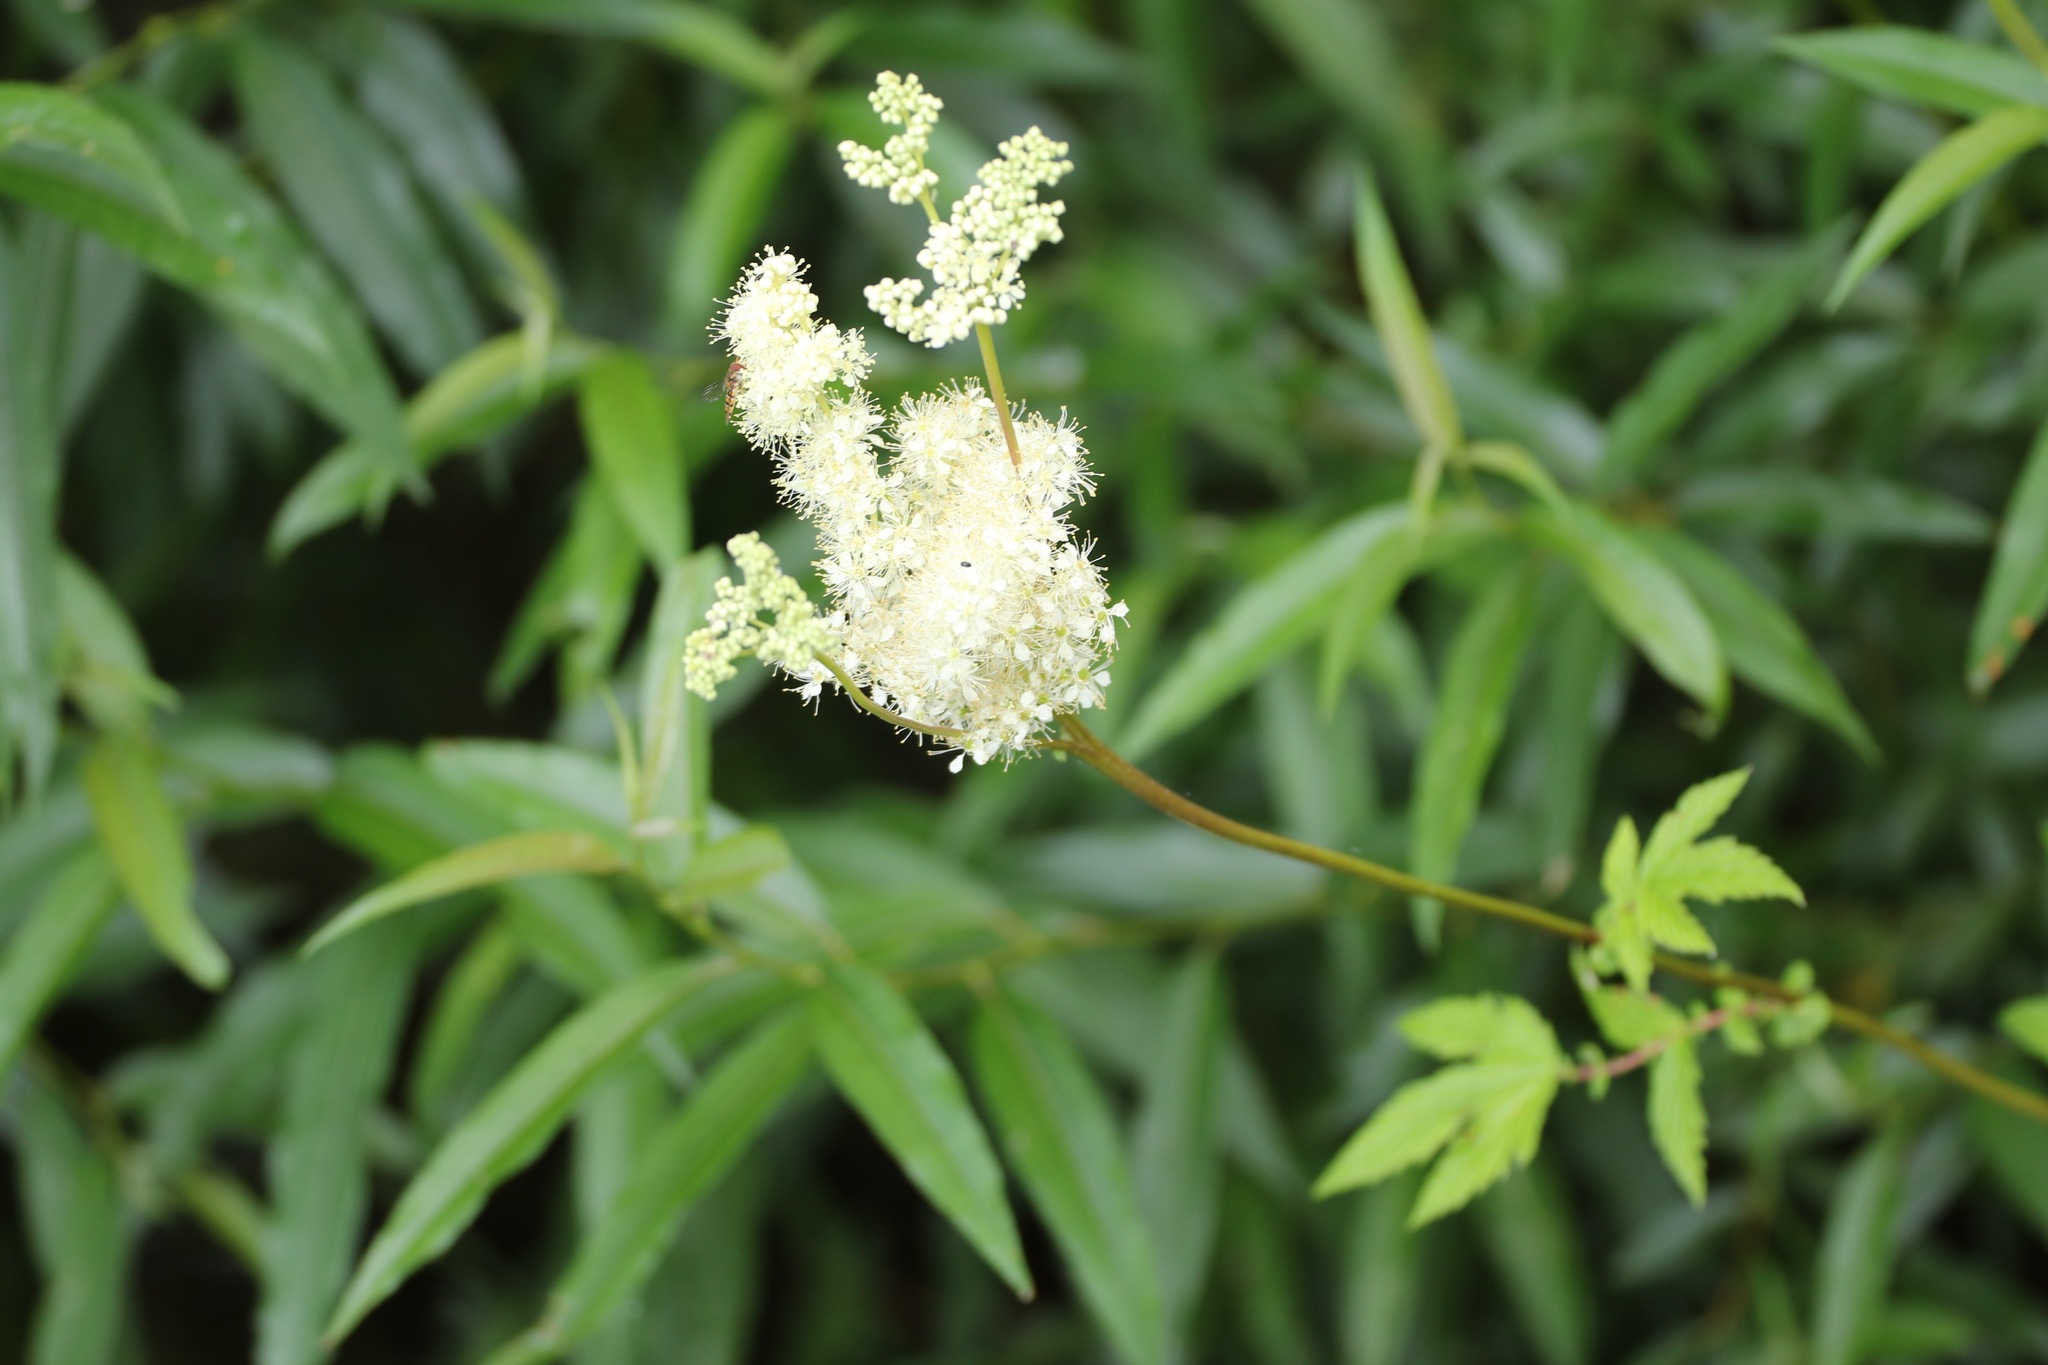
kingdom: Plantae
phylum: Tracheophyta
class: Magnoliopsida
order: Rosales
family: Rosaceae
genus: Filipendula
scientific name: Filipendula ulmaria
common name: Meadowsweet
